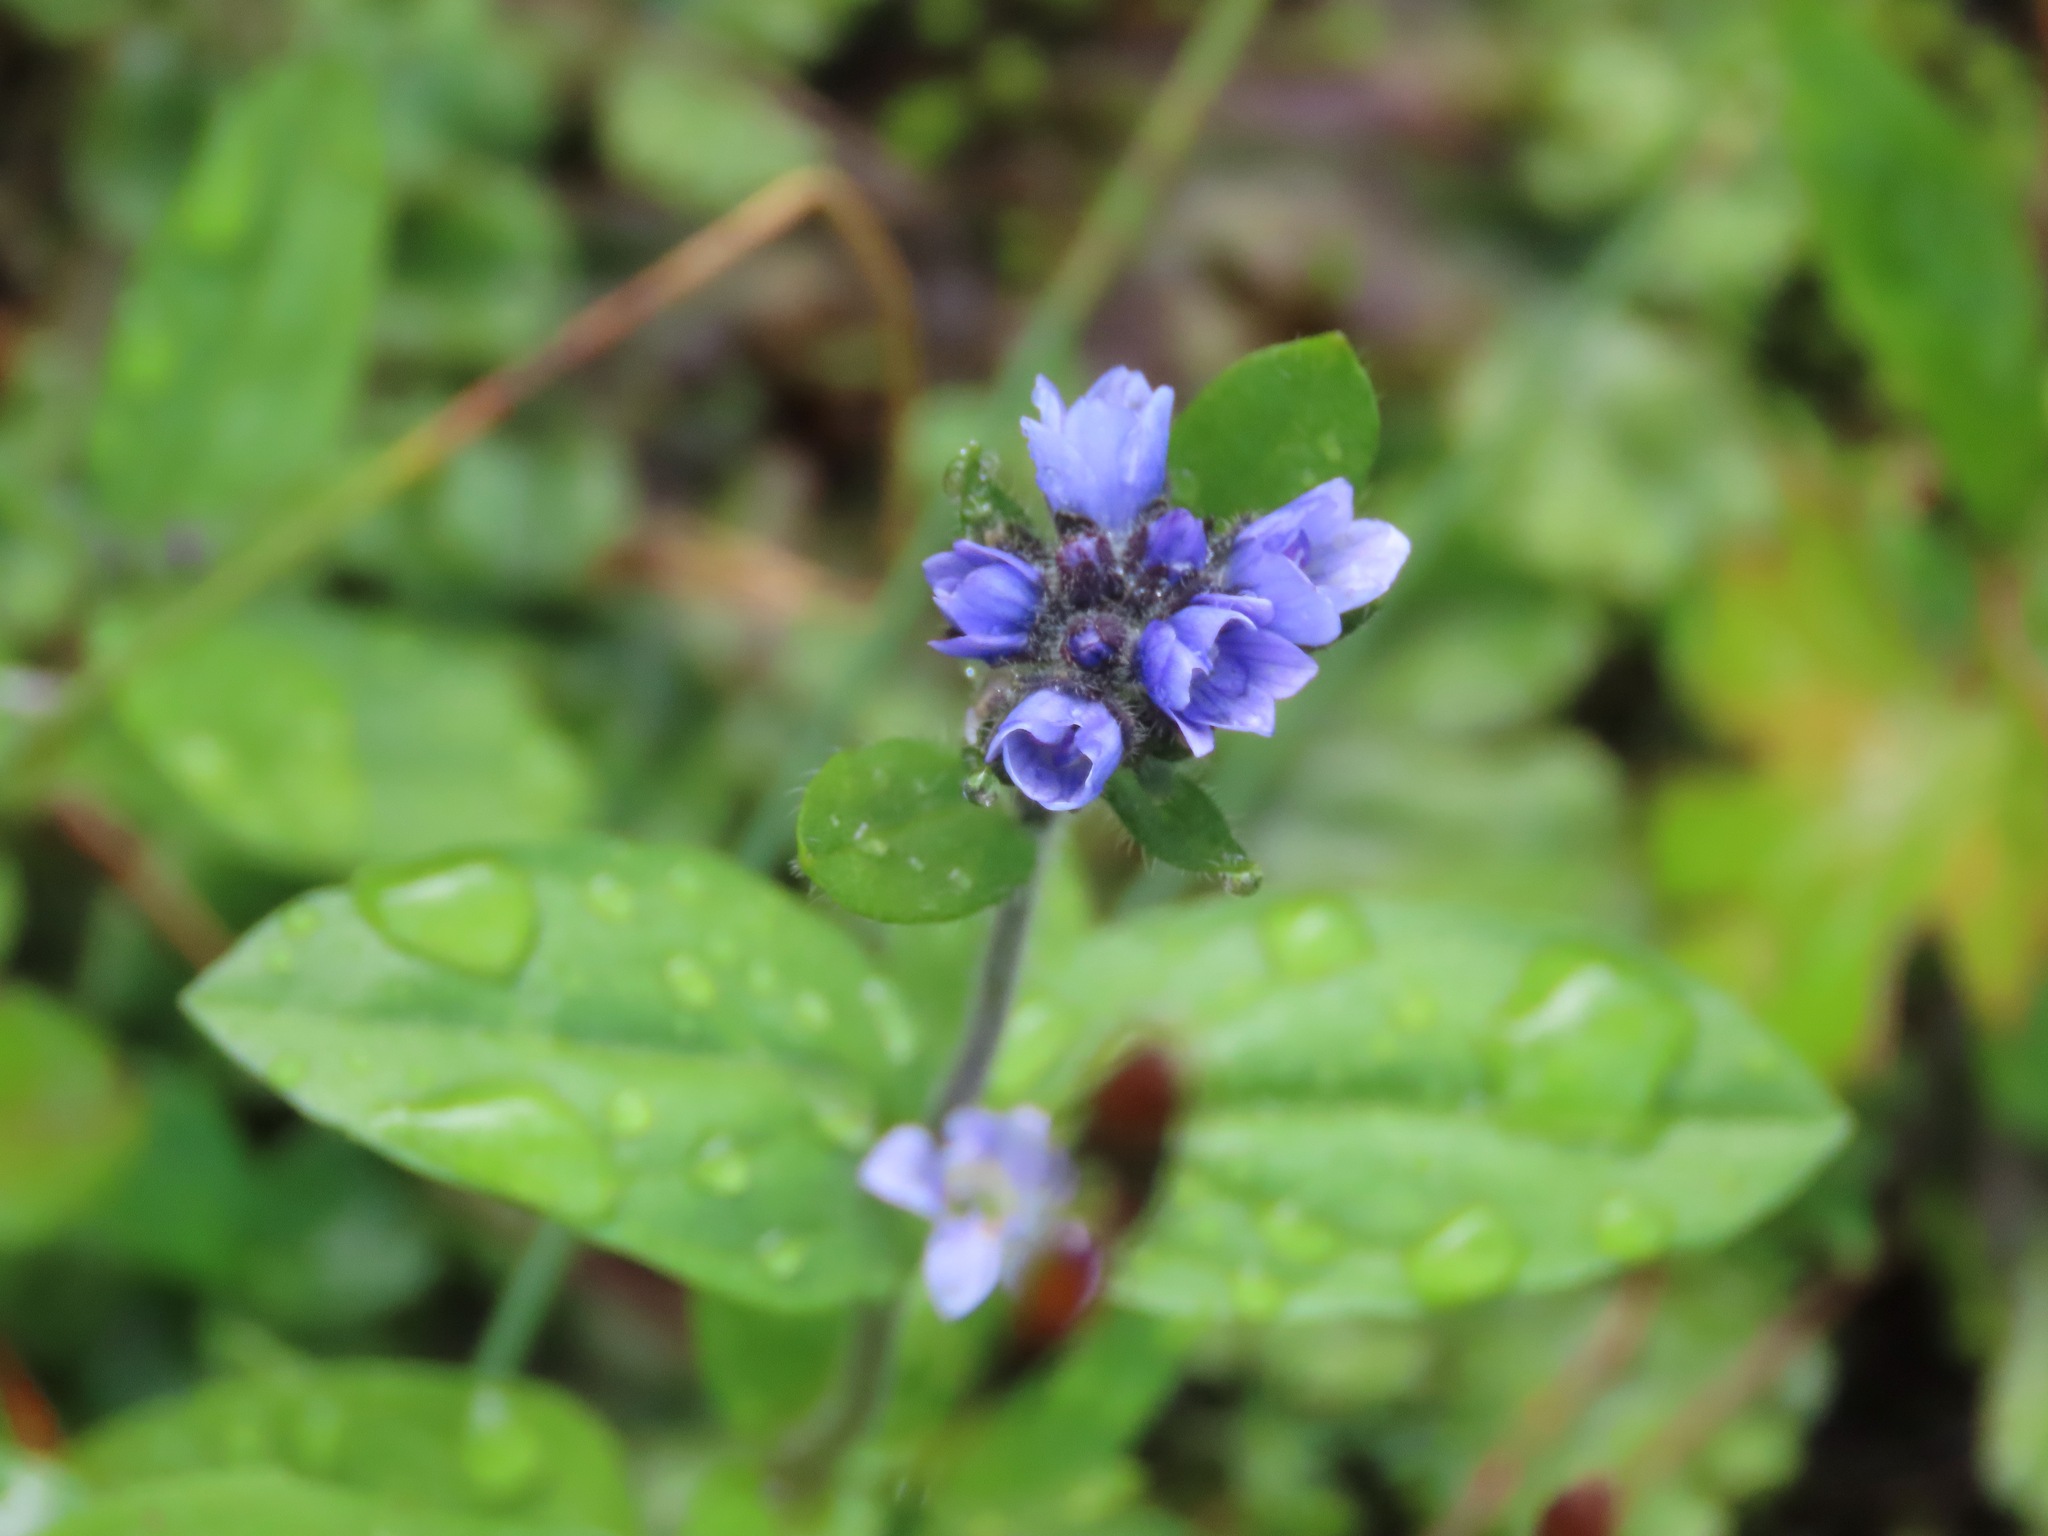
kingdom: Plantae
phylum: Tracheophyta
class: Magnoliopsida
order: Lamiales
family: Plantaginaceae
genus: Veronica
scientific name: Veronica wormskjoldii
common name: American alpine speedwell
